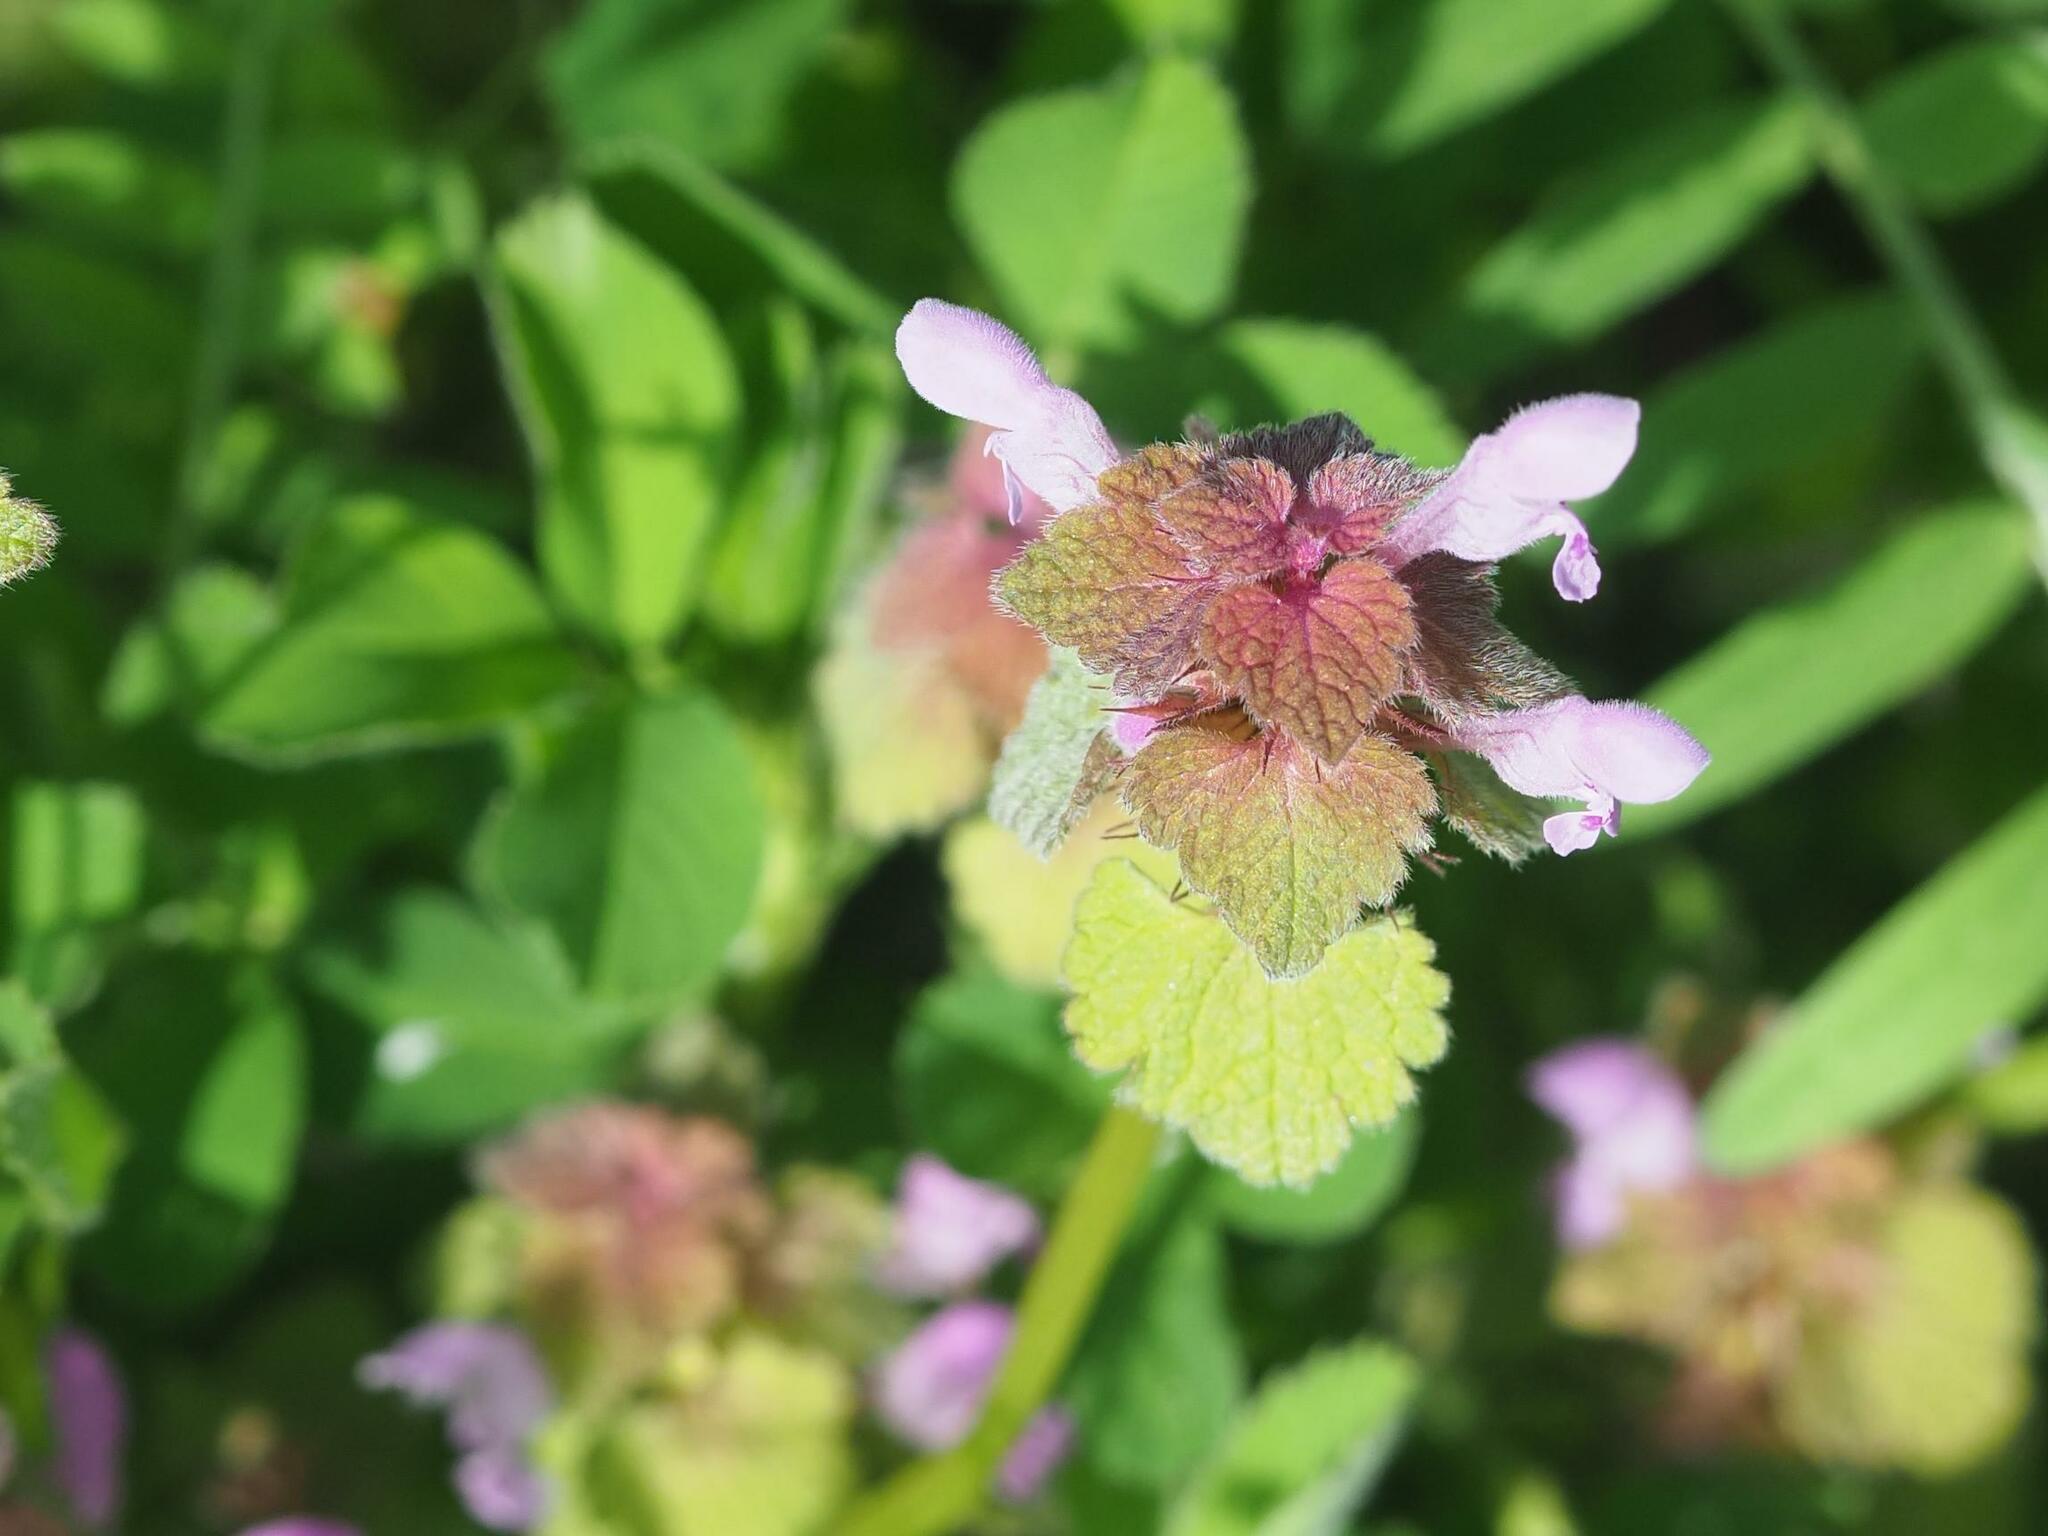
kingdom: Plantae
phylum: Tracheophyta
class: Magnoliopsida
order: Lamiales
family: Lamiaceae
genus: Lamium
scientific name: Lamium purpureum
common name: Red dead-nettle
